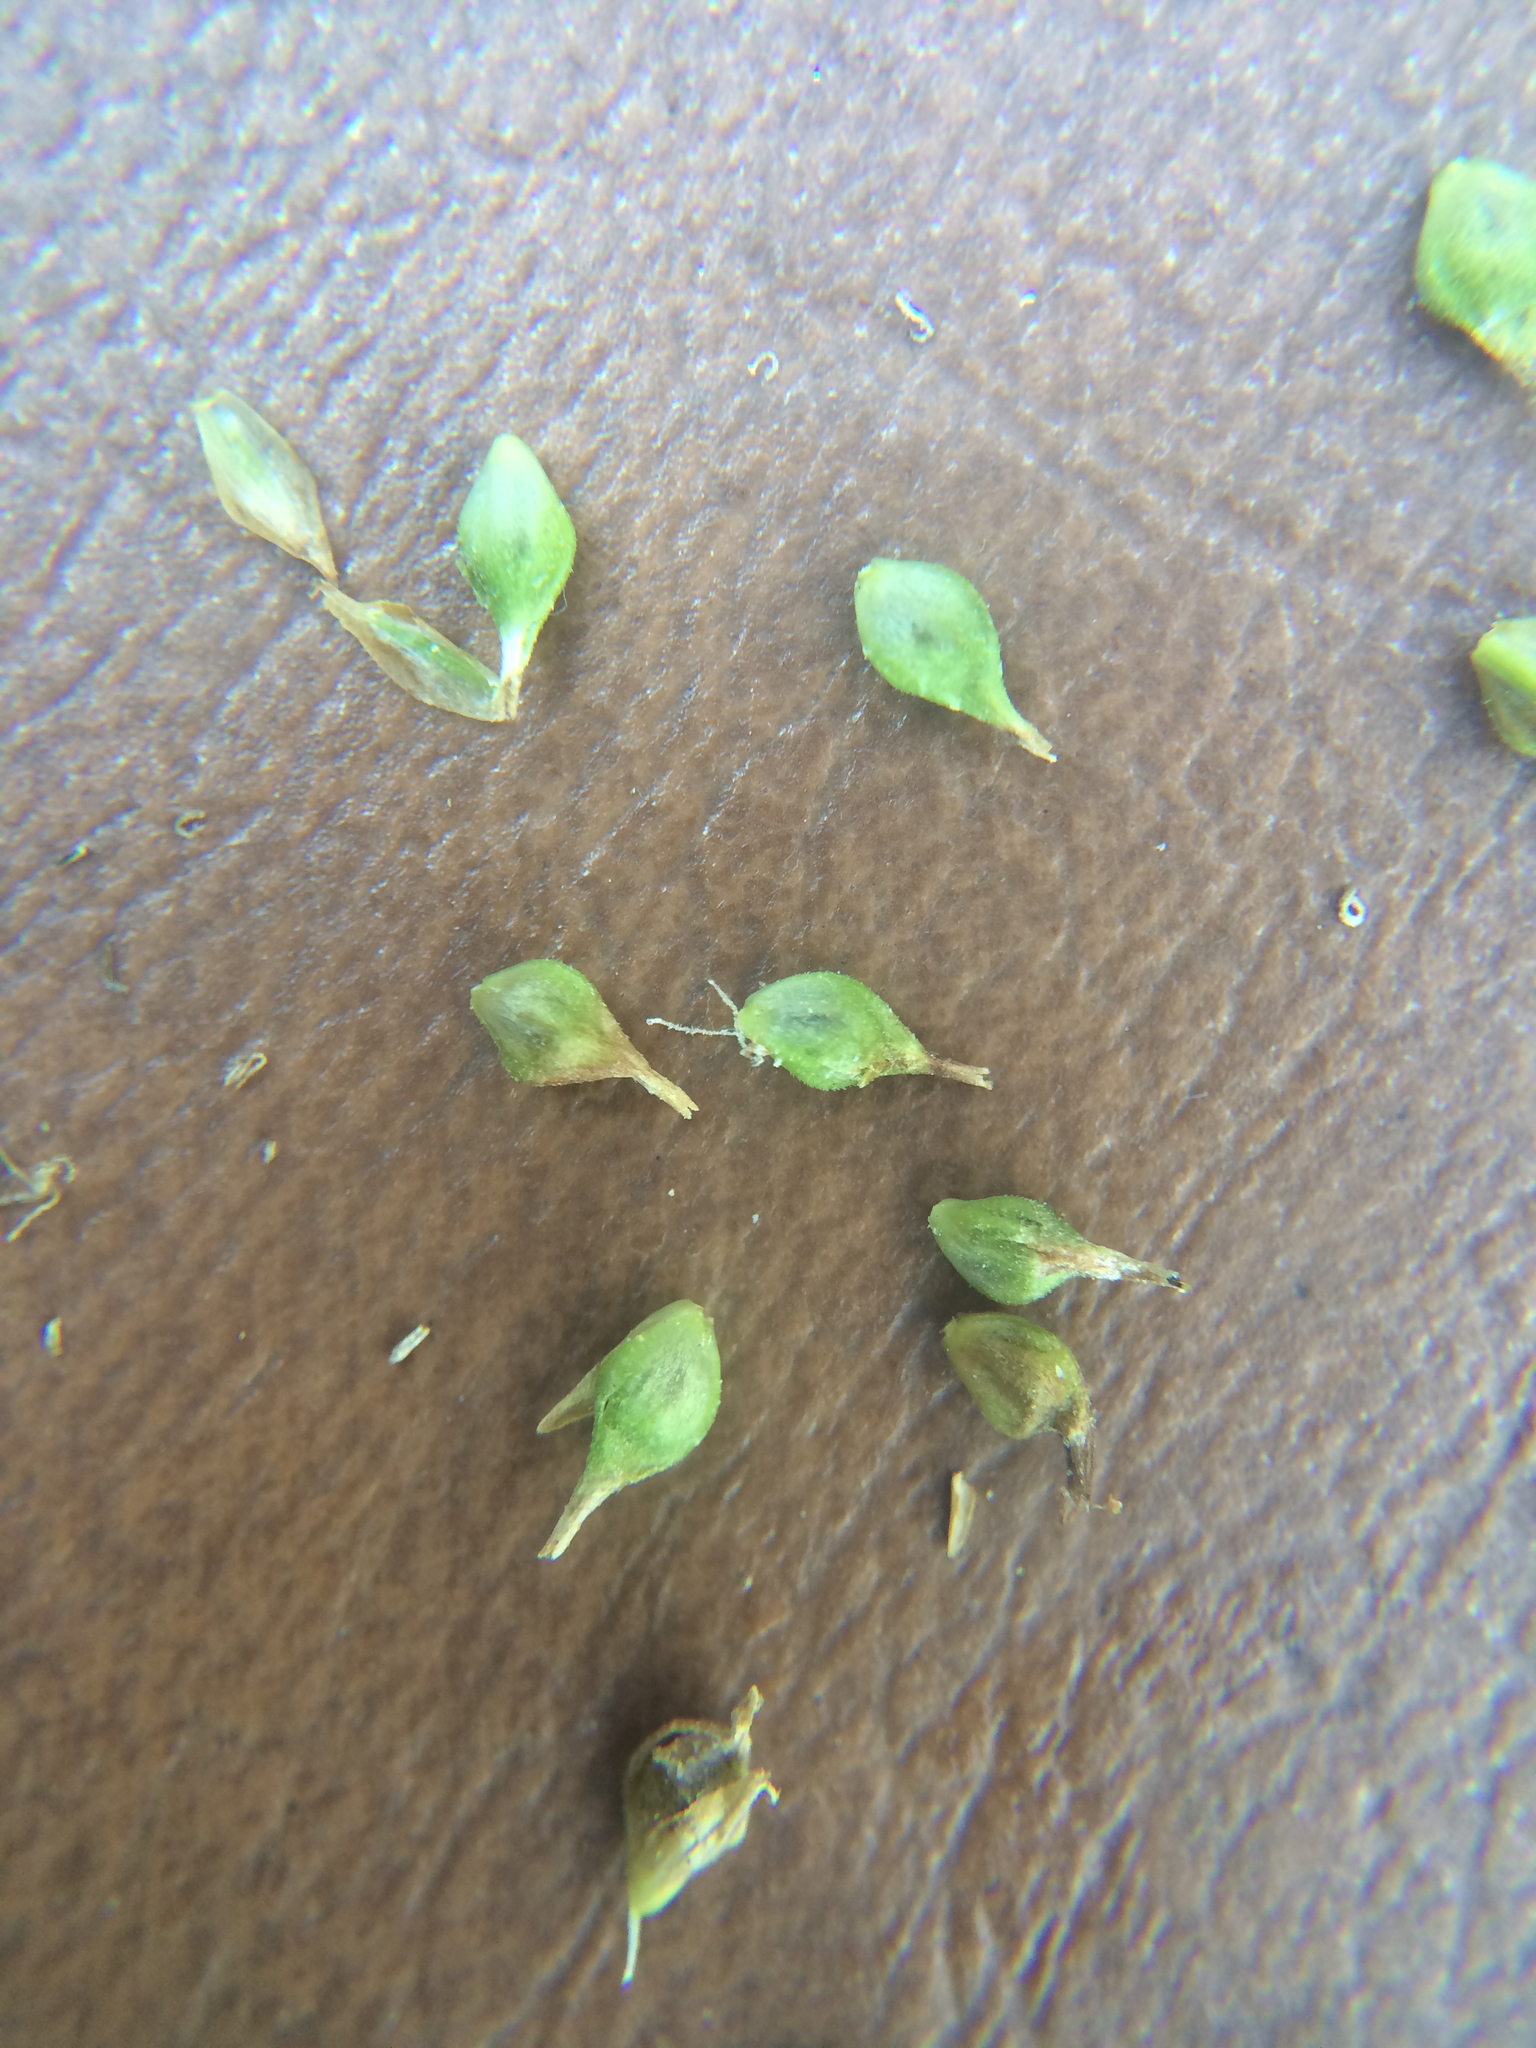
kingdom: Plantae
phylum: Tracheophyta
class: Liliopsida
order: Poales
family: Cyperaceae
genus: Carex
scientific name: Carex scabrata
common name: Eastern rough sedge
